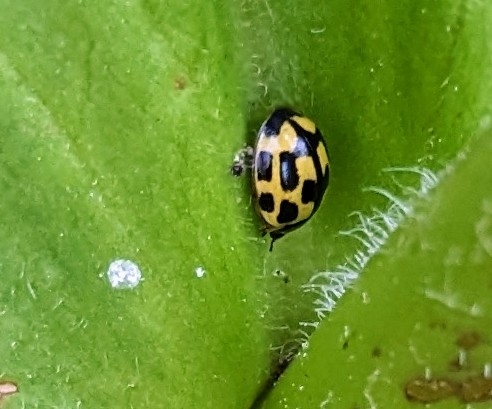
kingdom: Animalia
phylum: Arthropoda
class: Insecta
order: Coleoptera
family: Coccinellidae
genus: Propylaea
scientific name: Propylaea quatuordecimpunctata
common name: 14-spotted ladybird beetle
